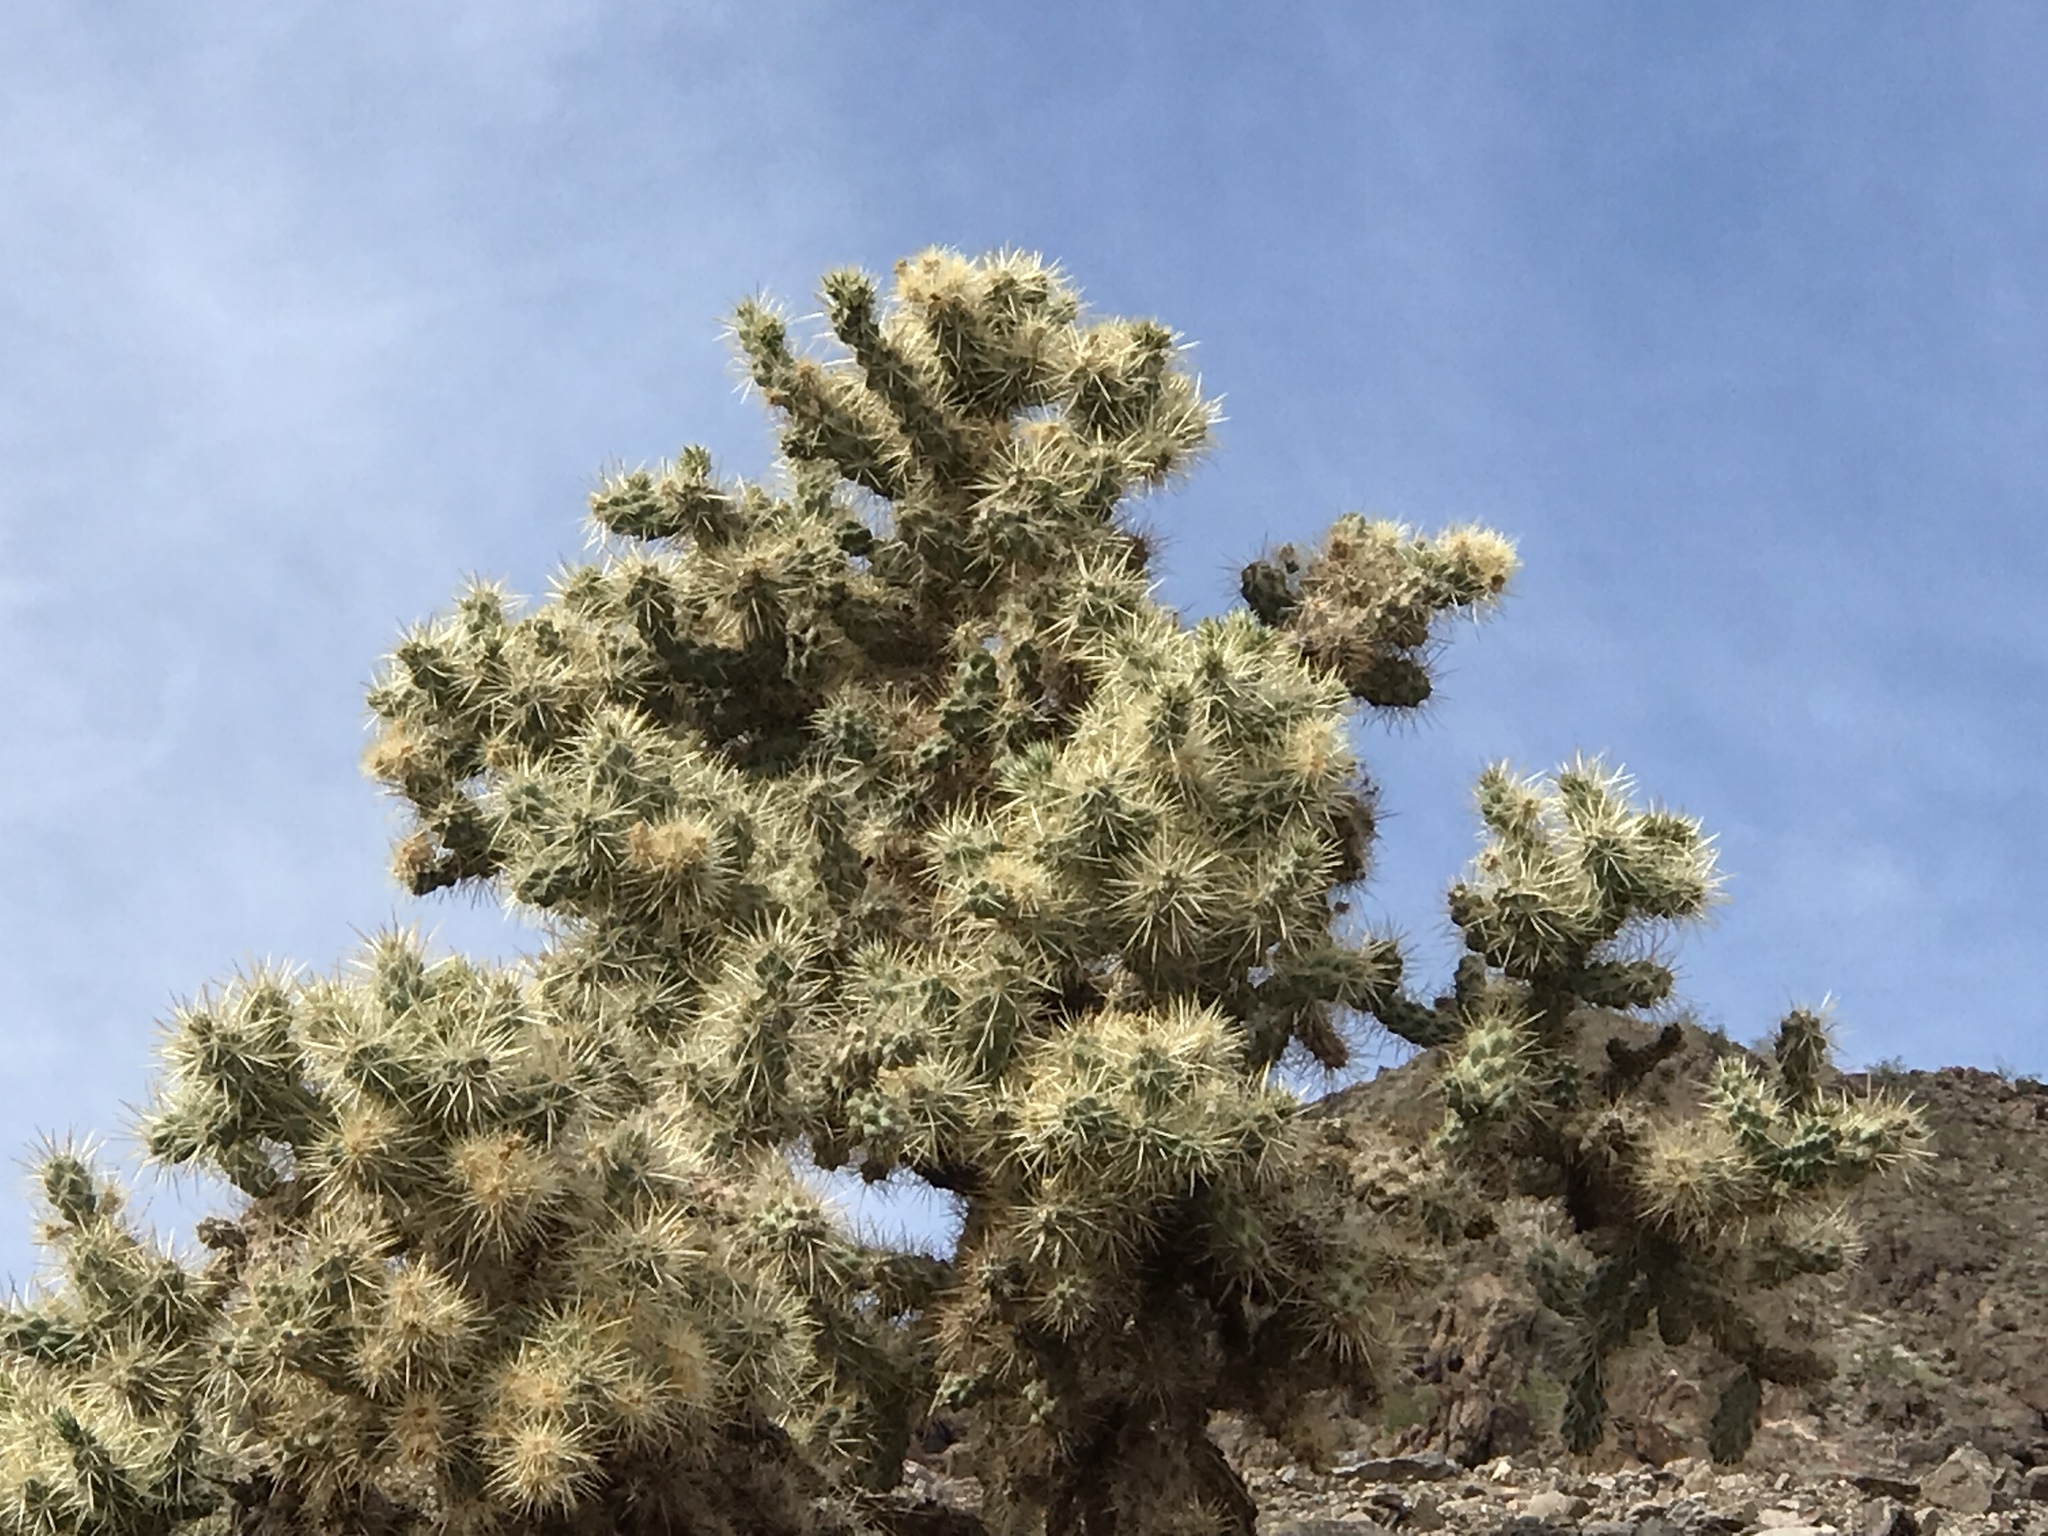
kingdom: Plantae
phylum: Tracheophyta
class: Magnoliopsida
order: Caryophyllales
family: Cactaceae
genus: Cylindropuntia
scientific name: Cylindropuntia echinocarpa
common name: Ground cholla
